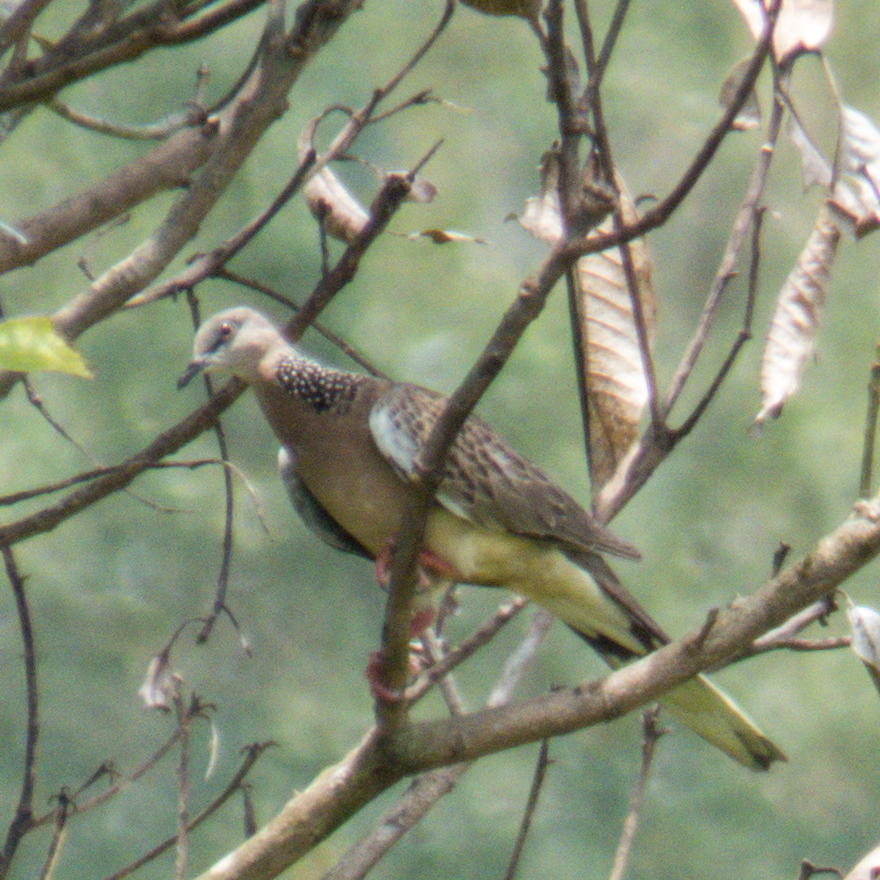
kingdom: Animalia
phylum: Chordata
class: Aves
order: Columbiformes
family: Columbidae
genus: Spilopelia
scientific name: Spilopelia chinensis
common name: Spotted dove
